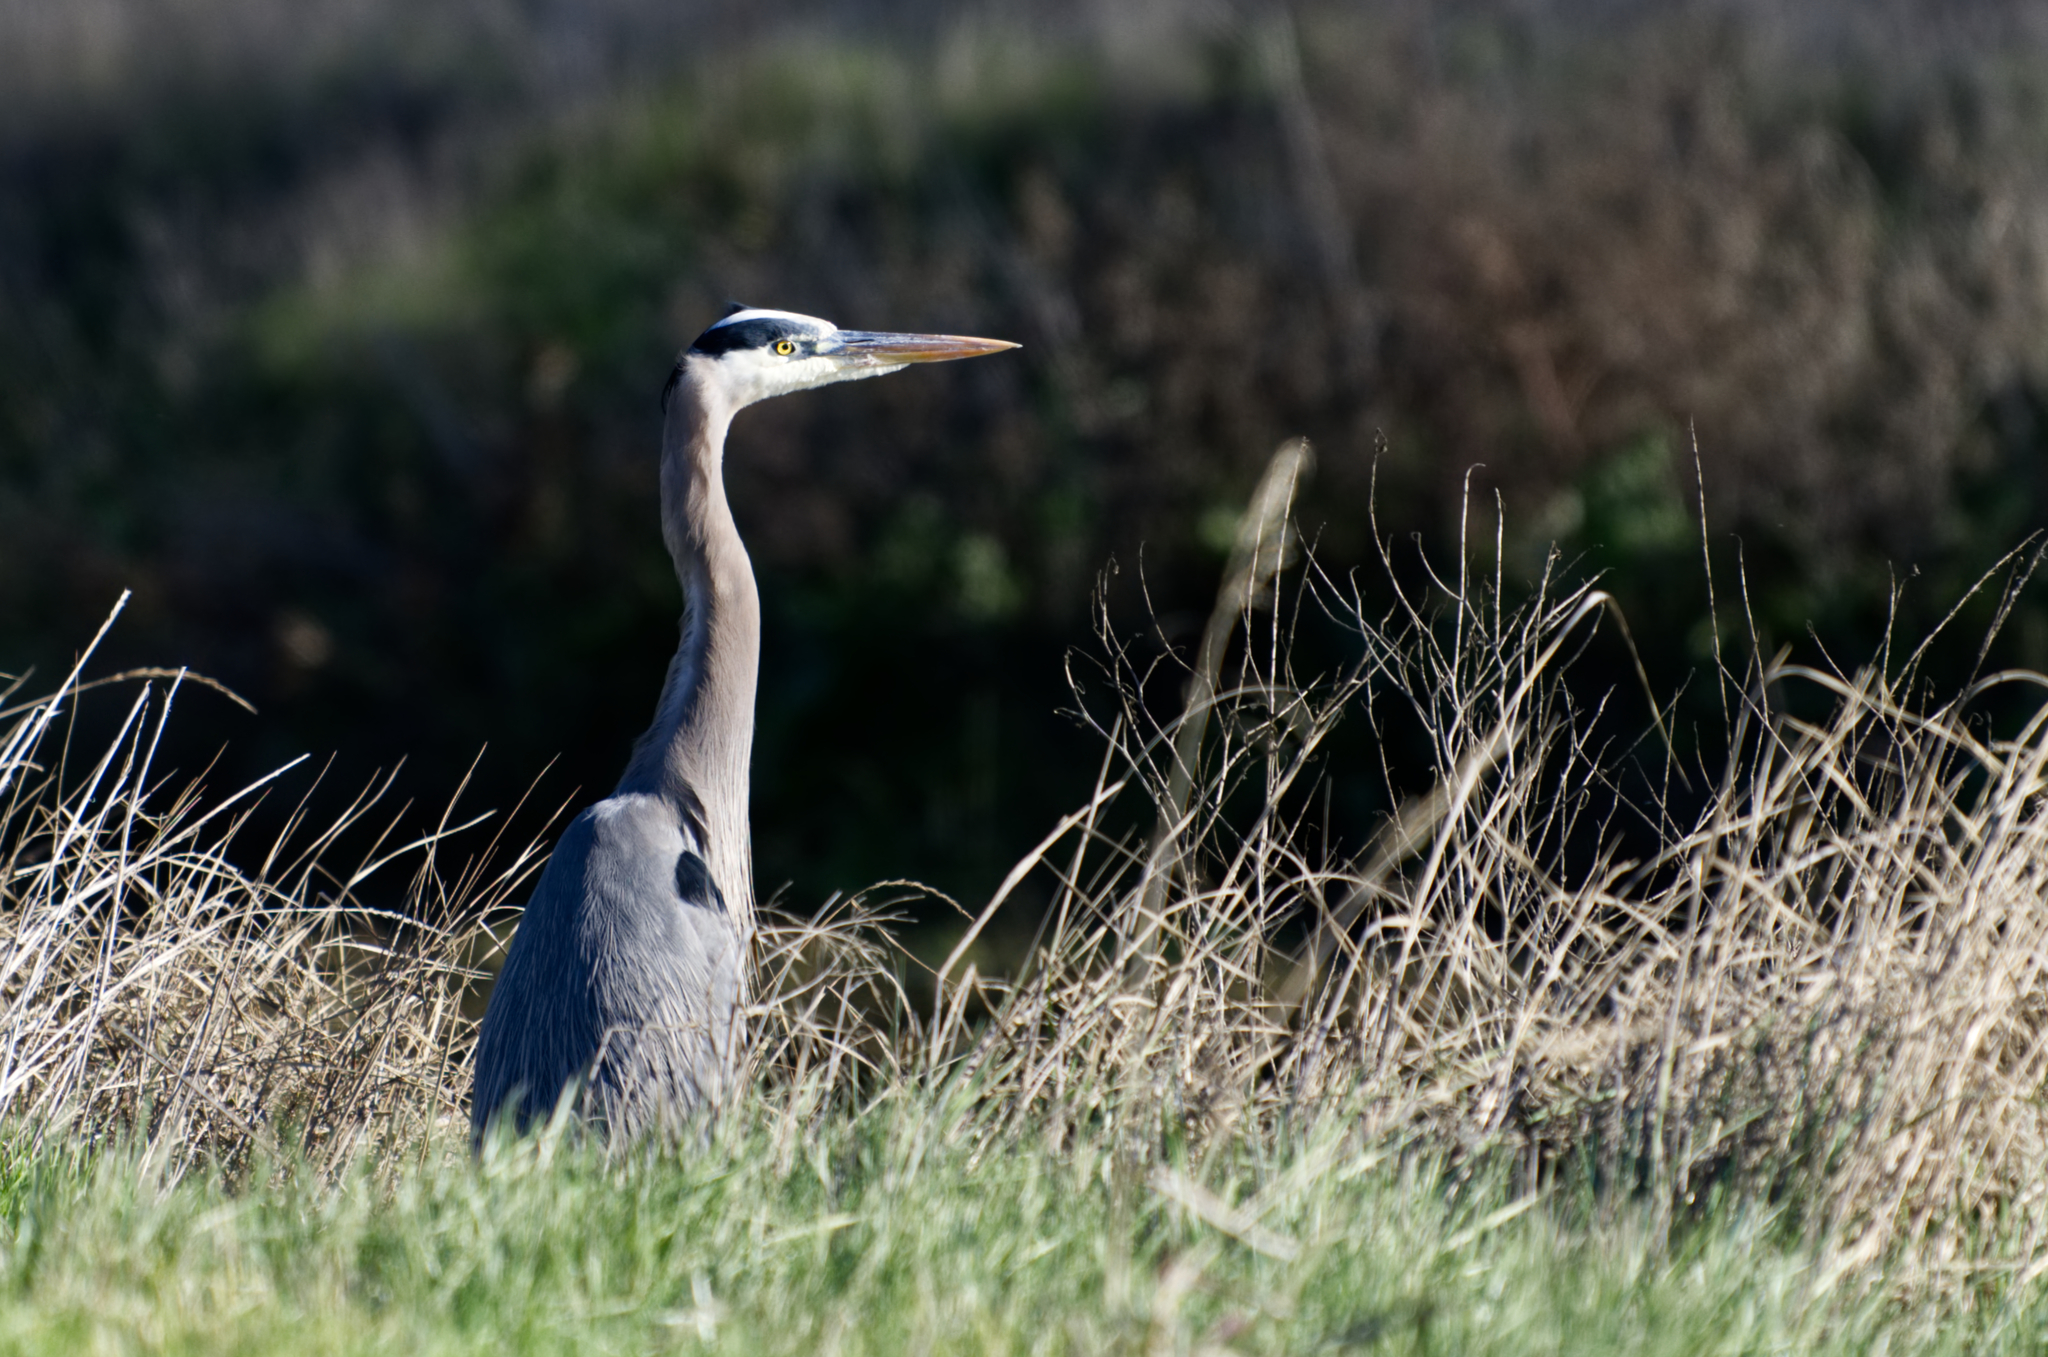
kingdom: Animalia
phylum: Chordata
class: Aves
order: Pelecaniformes
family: Ardeidae
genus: Ardea
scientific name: Ardea herodias
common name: Great blue heron
